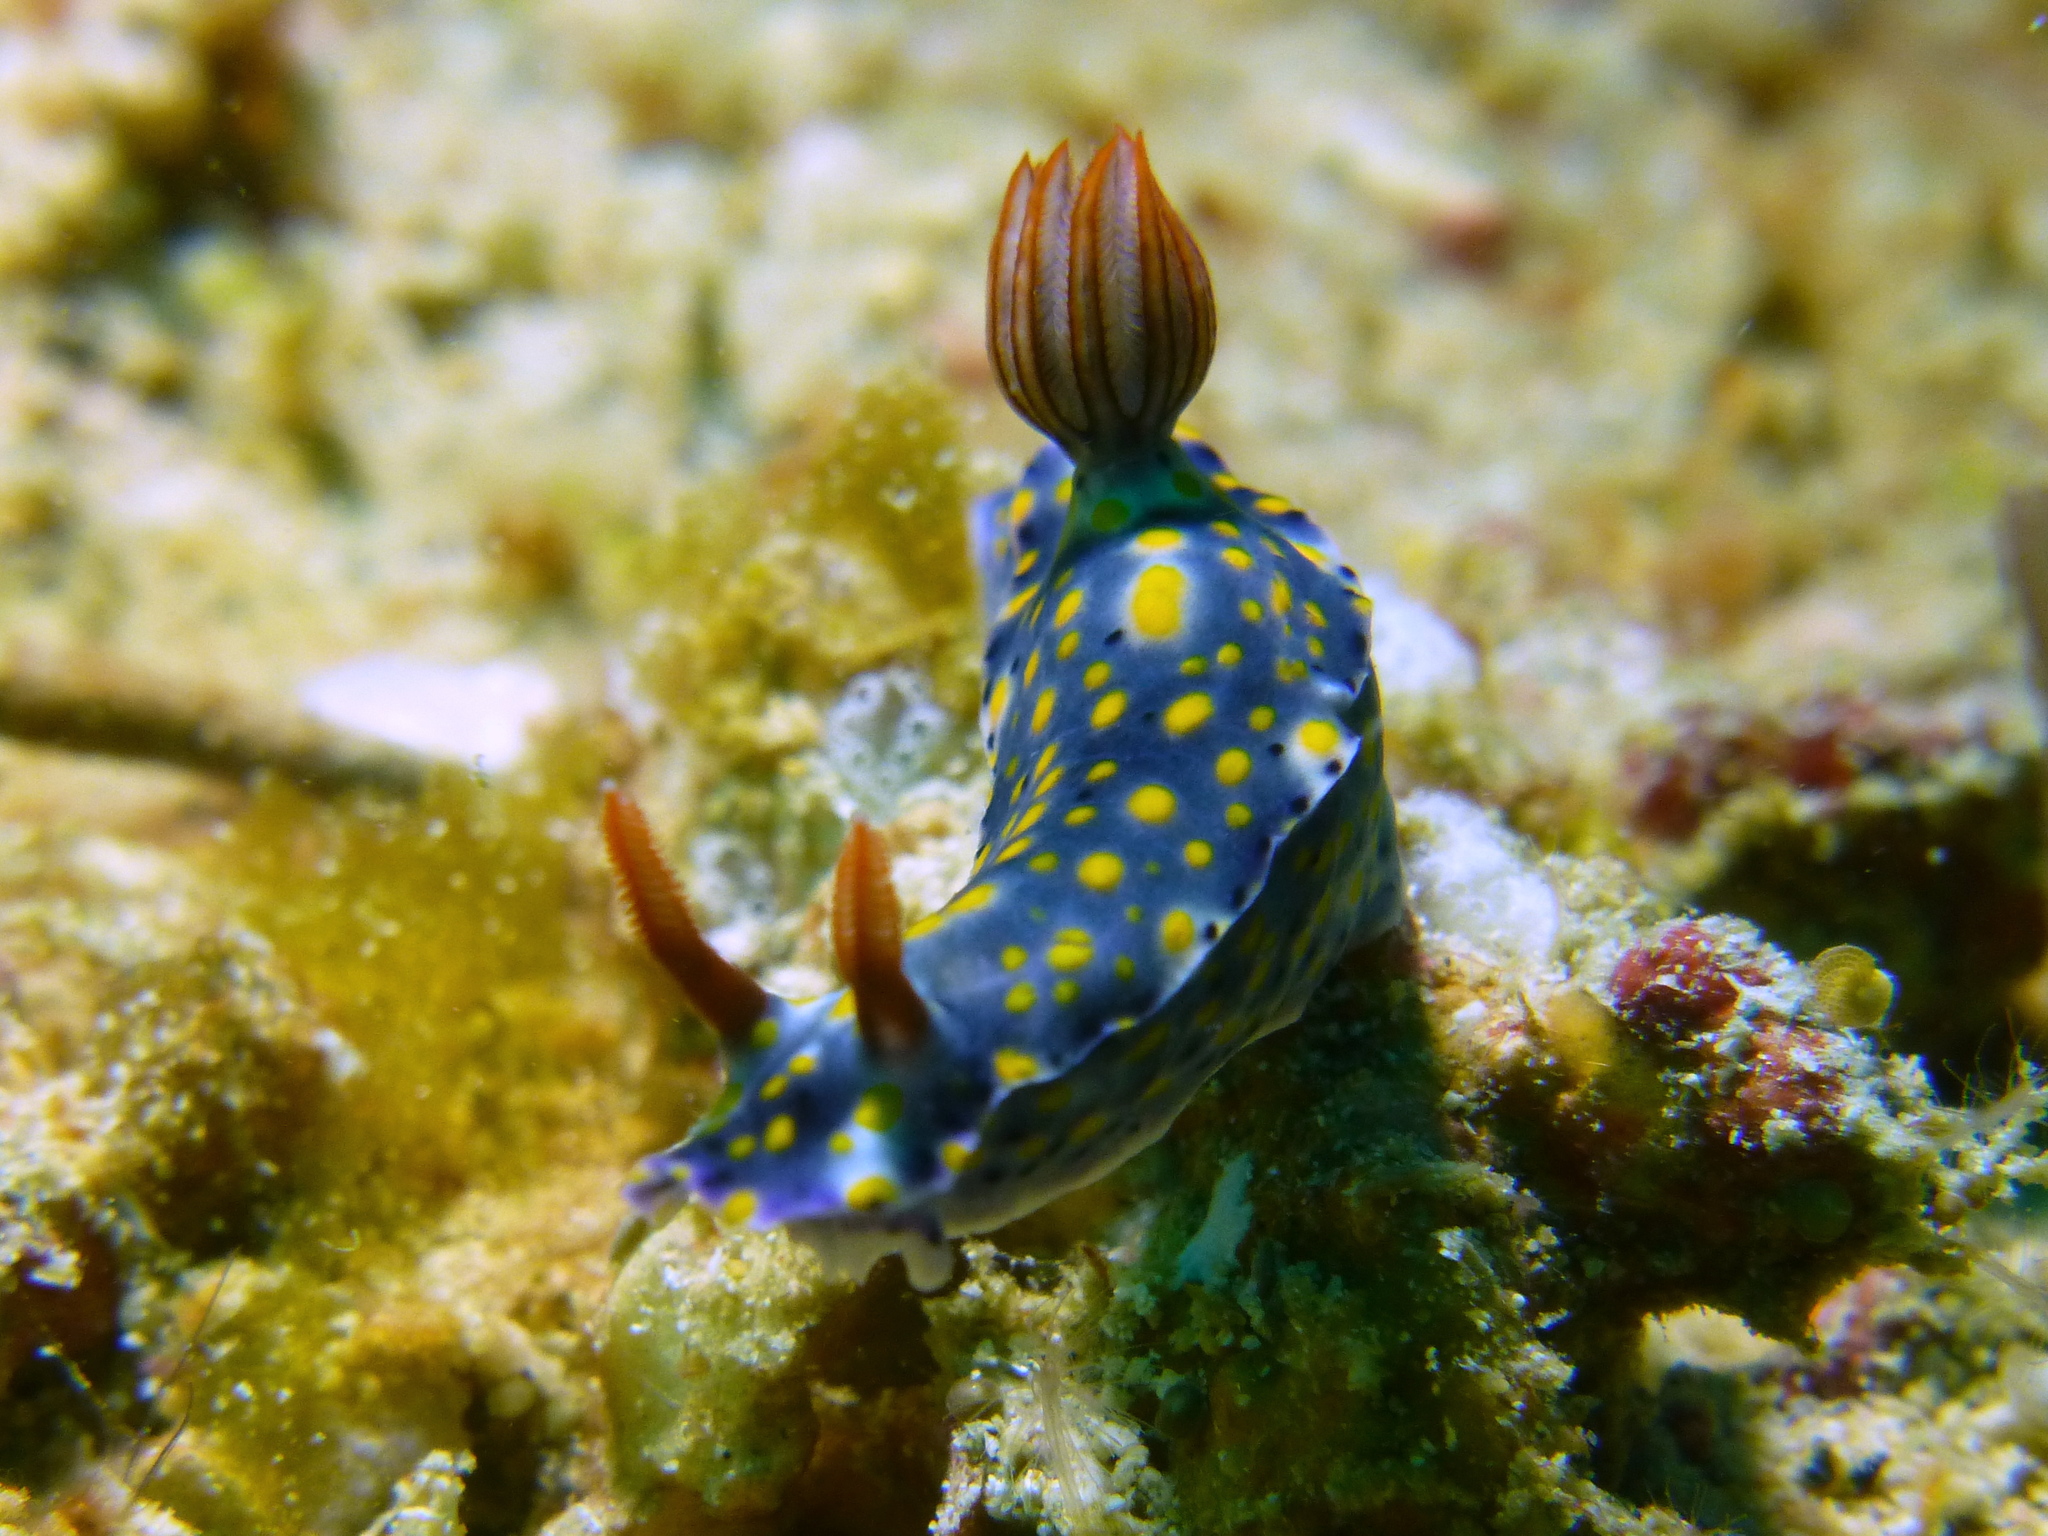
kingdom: Animalia
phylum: Mollusca
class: Gastropoda
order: Nudibranchia
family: Chromodorididae
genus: Hypselodoris
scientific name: Hypselodoris roo
